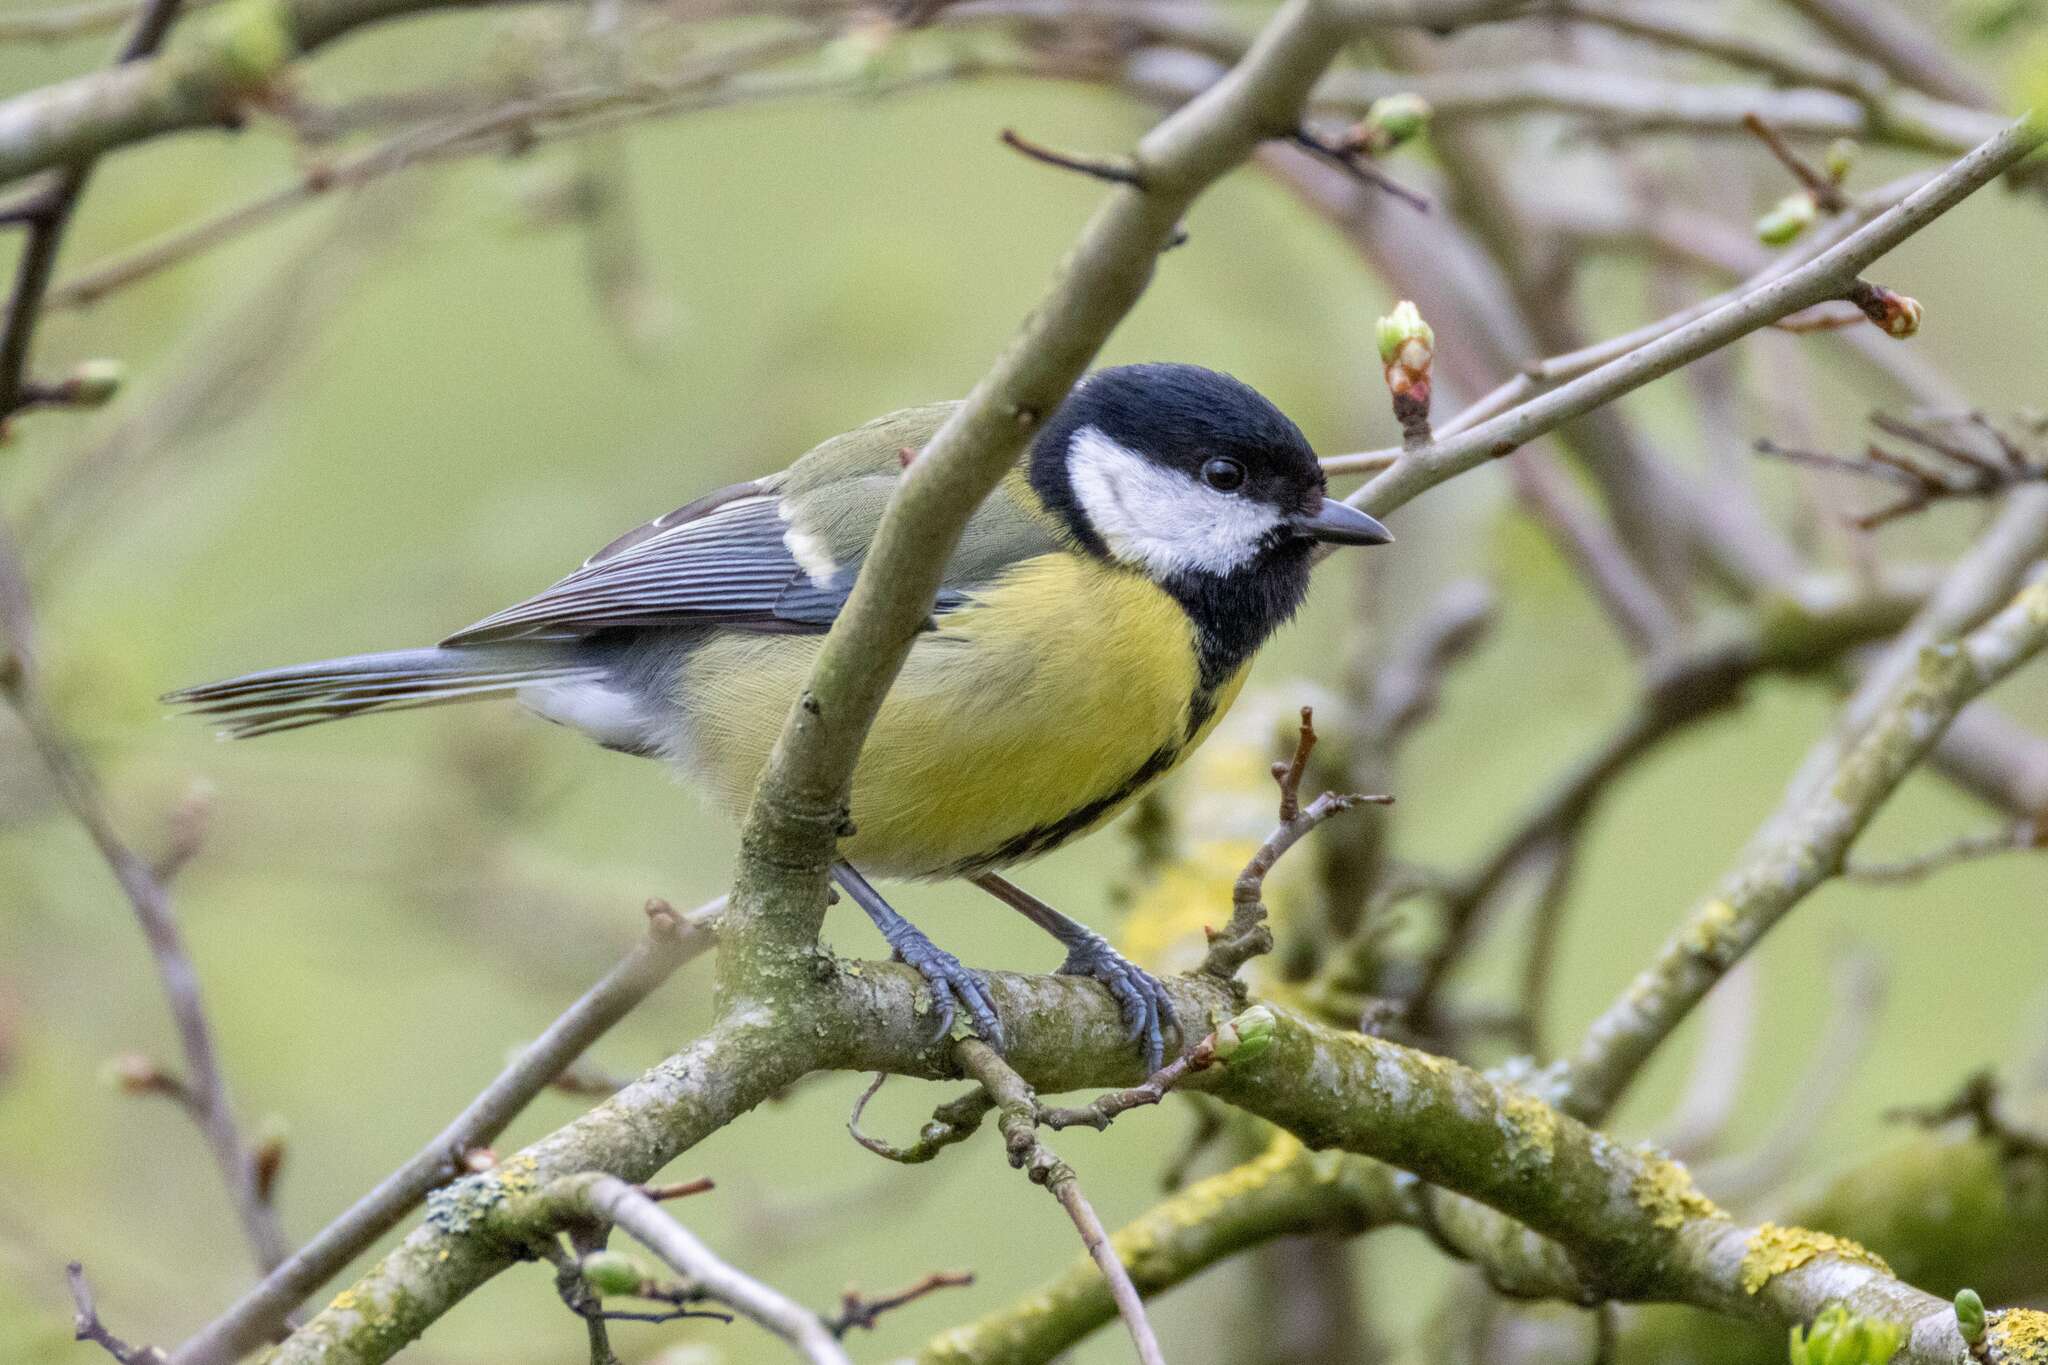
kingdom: Animalia
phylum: Chordata
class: Aves
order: Passeriformes
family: Paridae
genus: Parus
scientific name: Parus major
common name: Great tit
